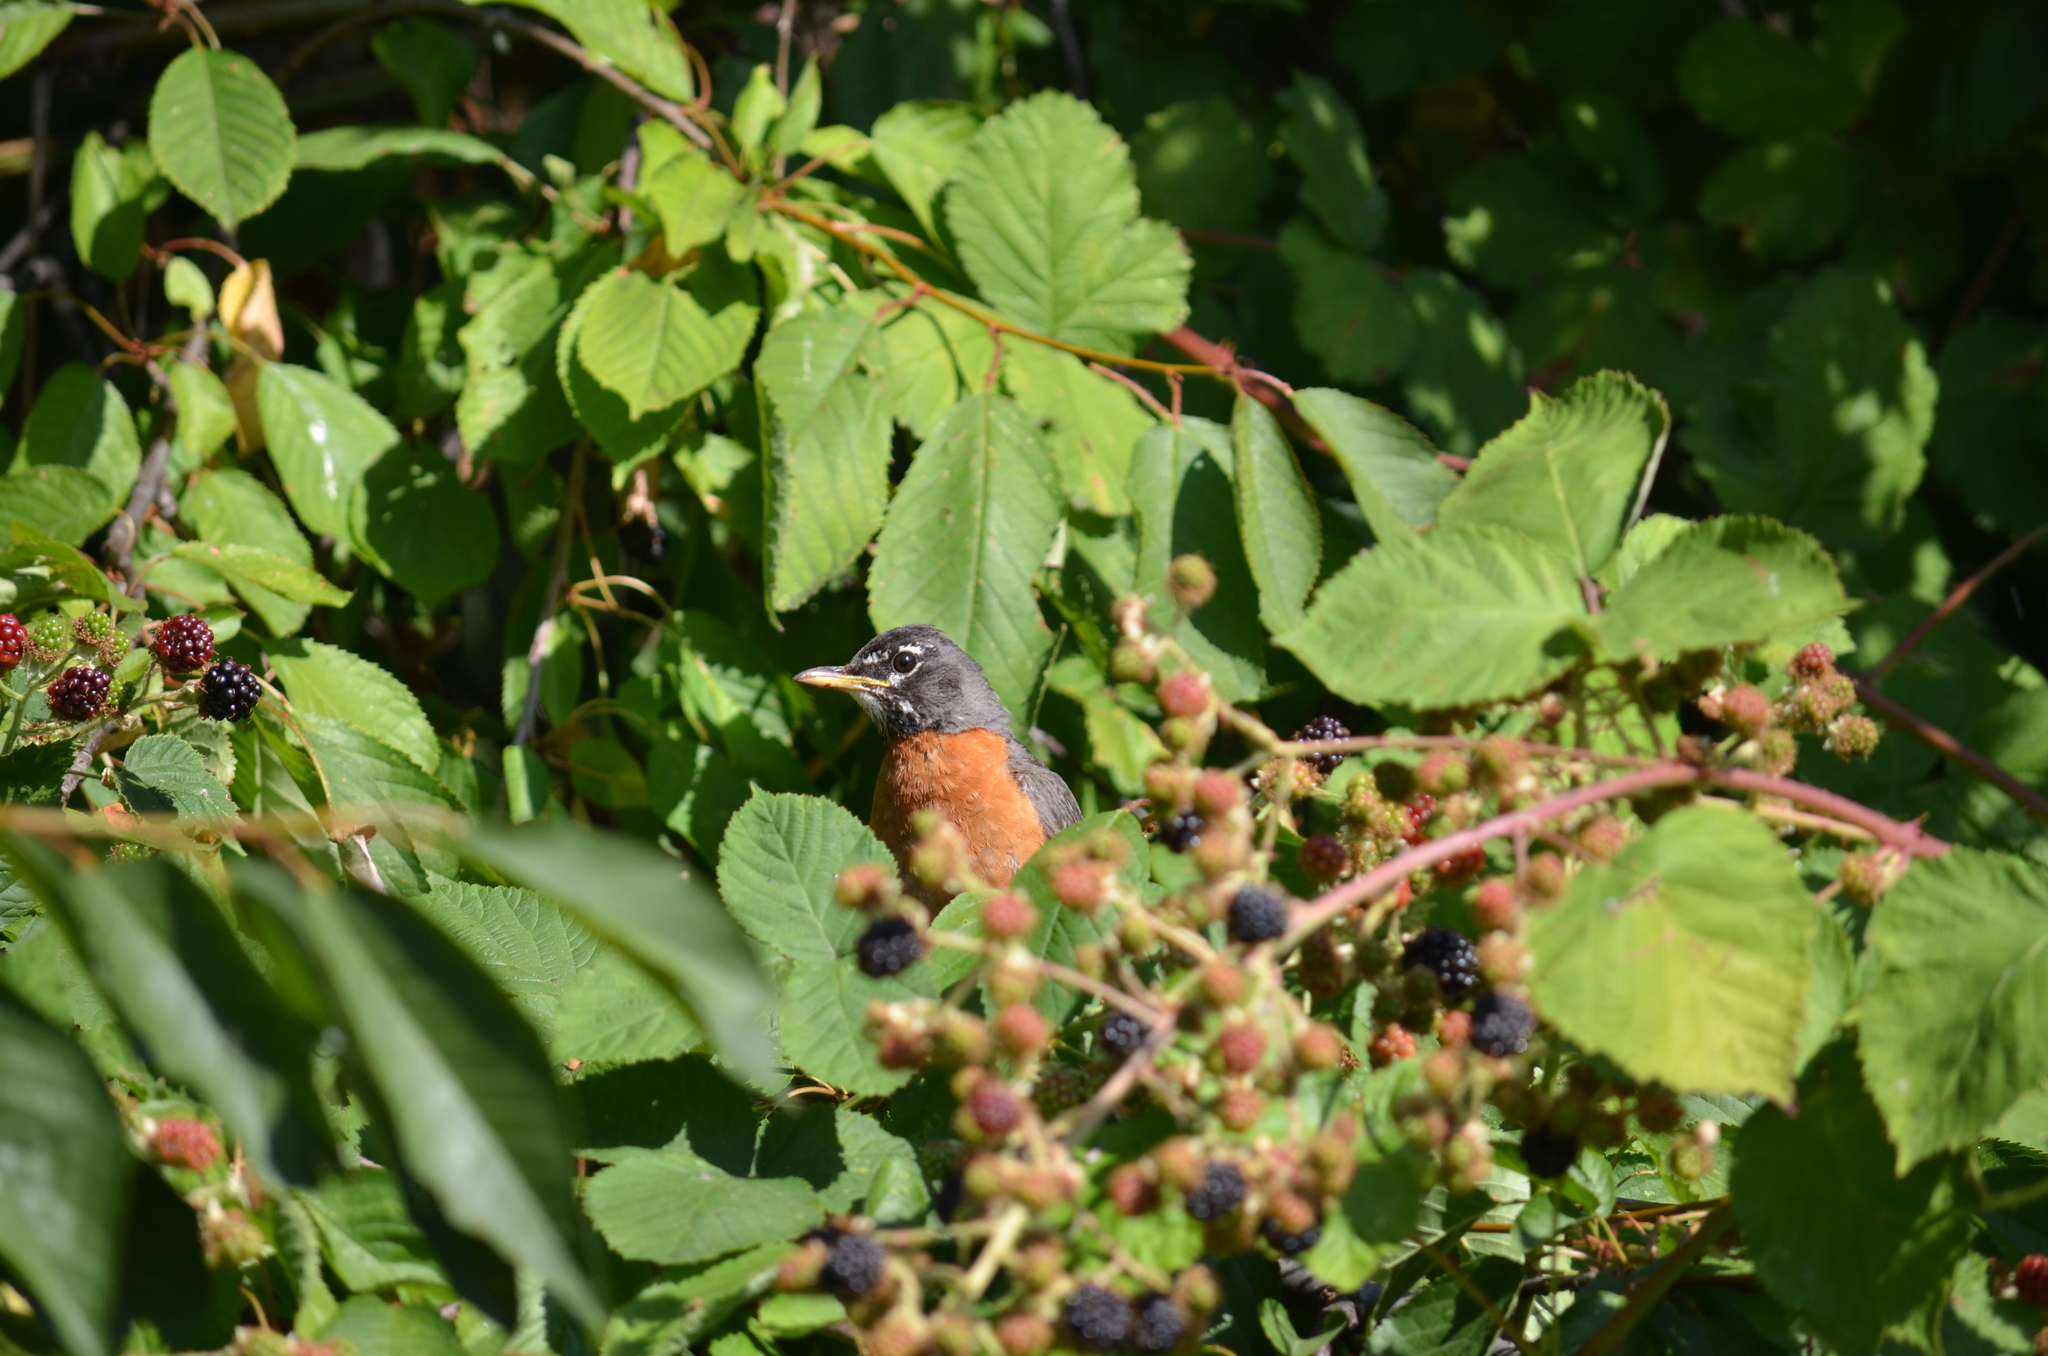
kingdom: Animalia
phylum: Chordata
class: Aves
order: Passeriformes
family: Turdidae
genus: Turdus
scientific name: Turdus migratorius
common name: American robin
